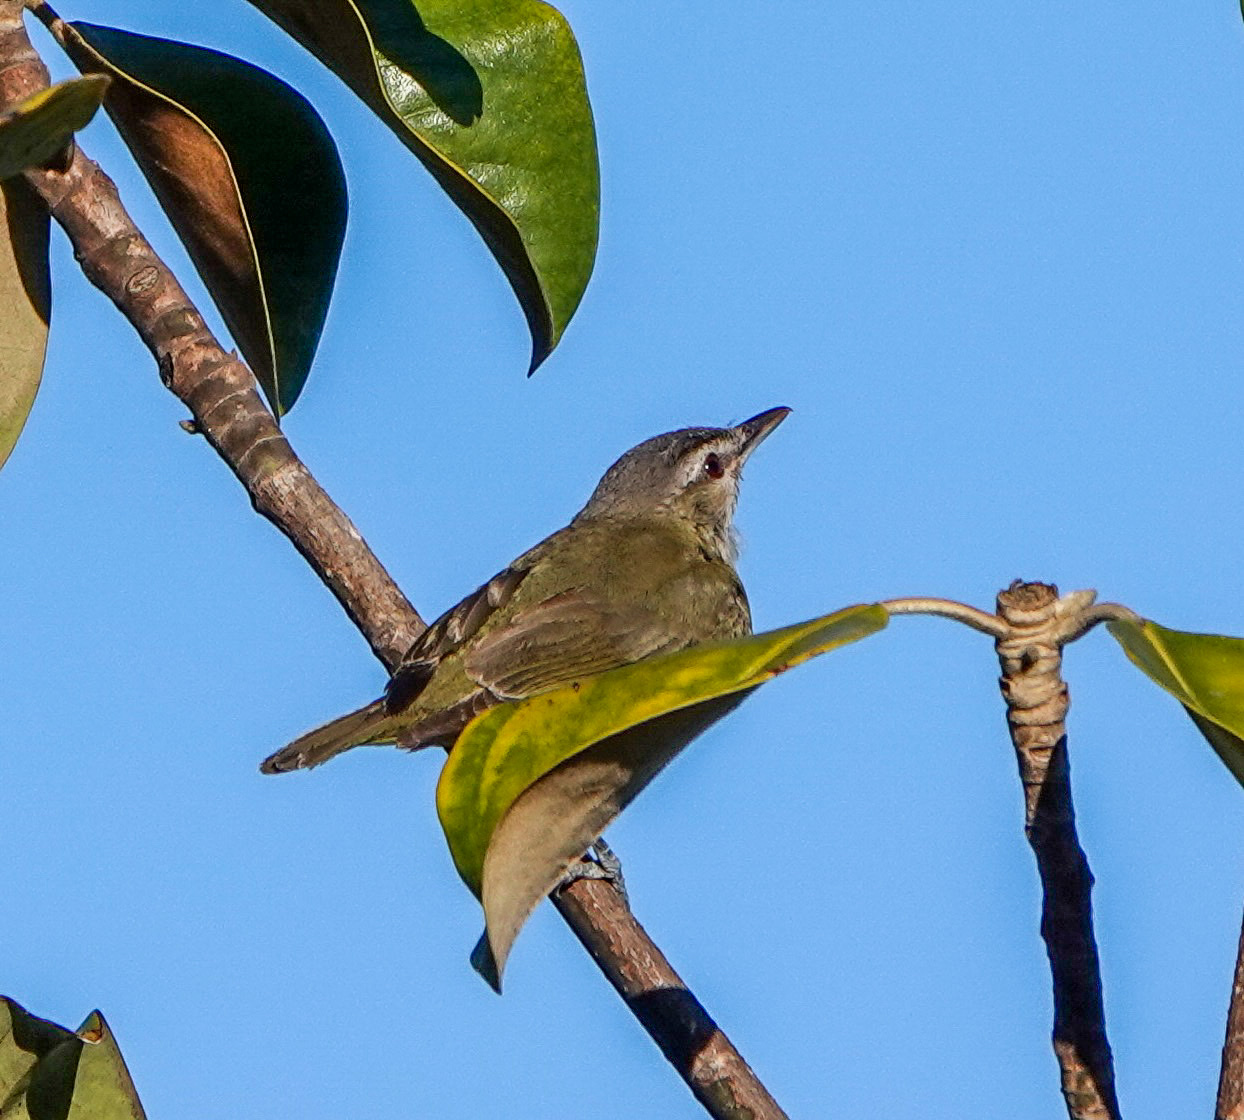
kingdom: Animalia
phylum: Chordata
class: Aves
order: Passeriformes
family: Vireonidae
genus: Vireo
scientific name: Vireo olivaceus
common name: Red-eyed vireo
